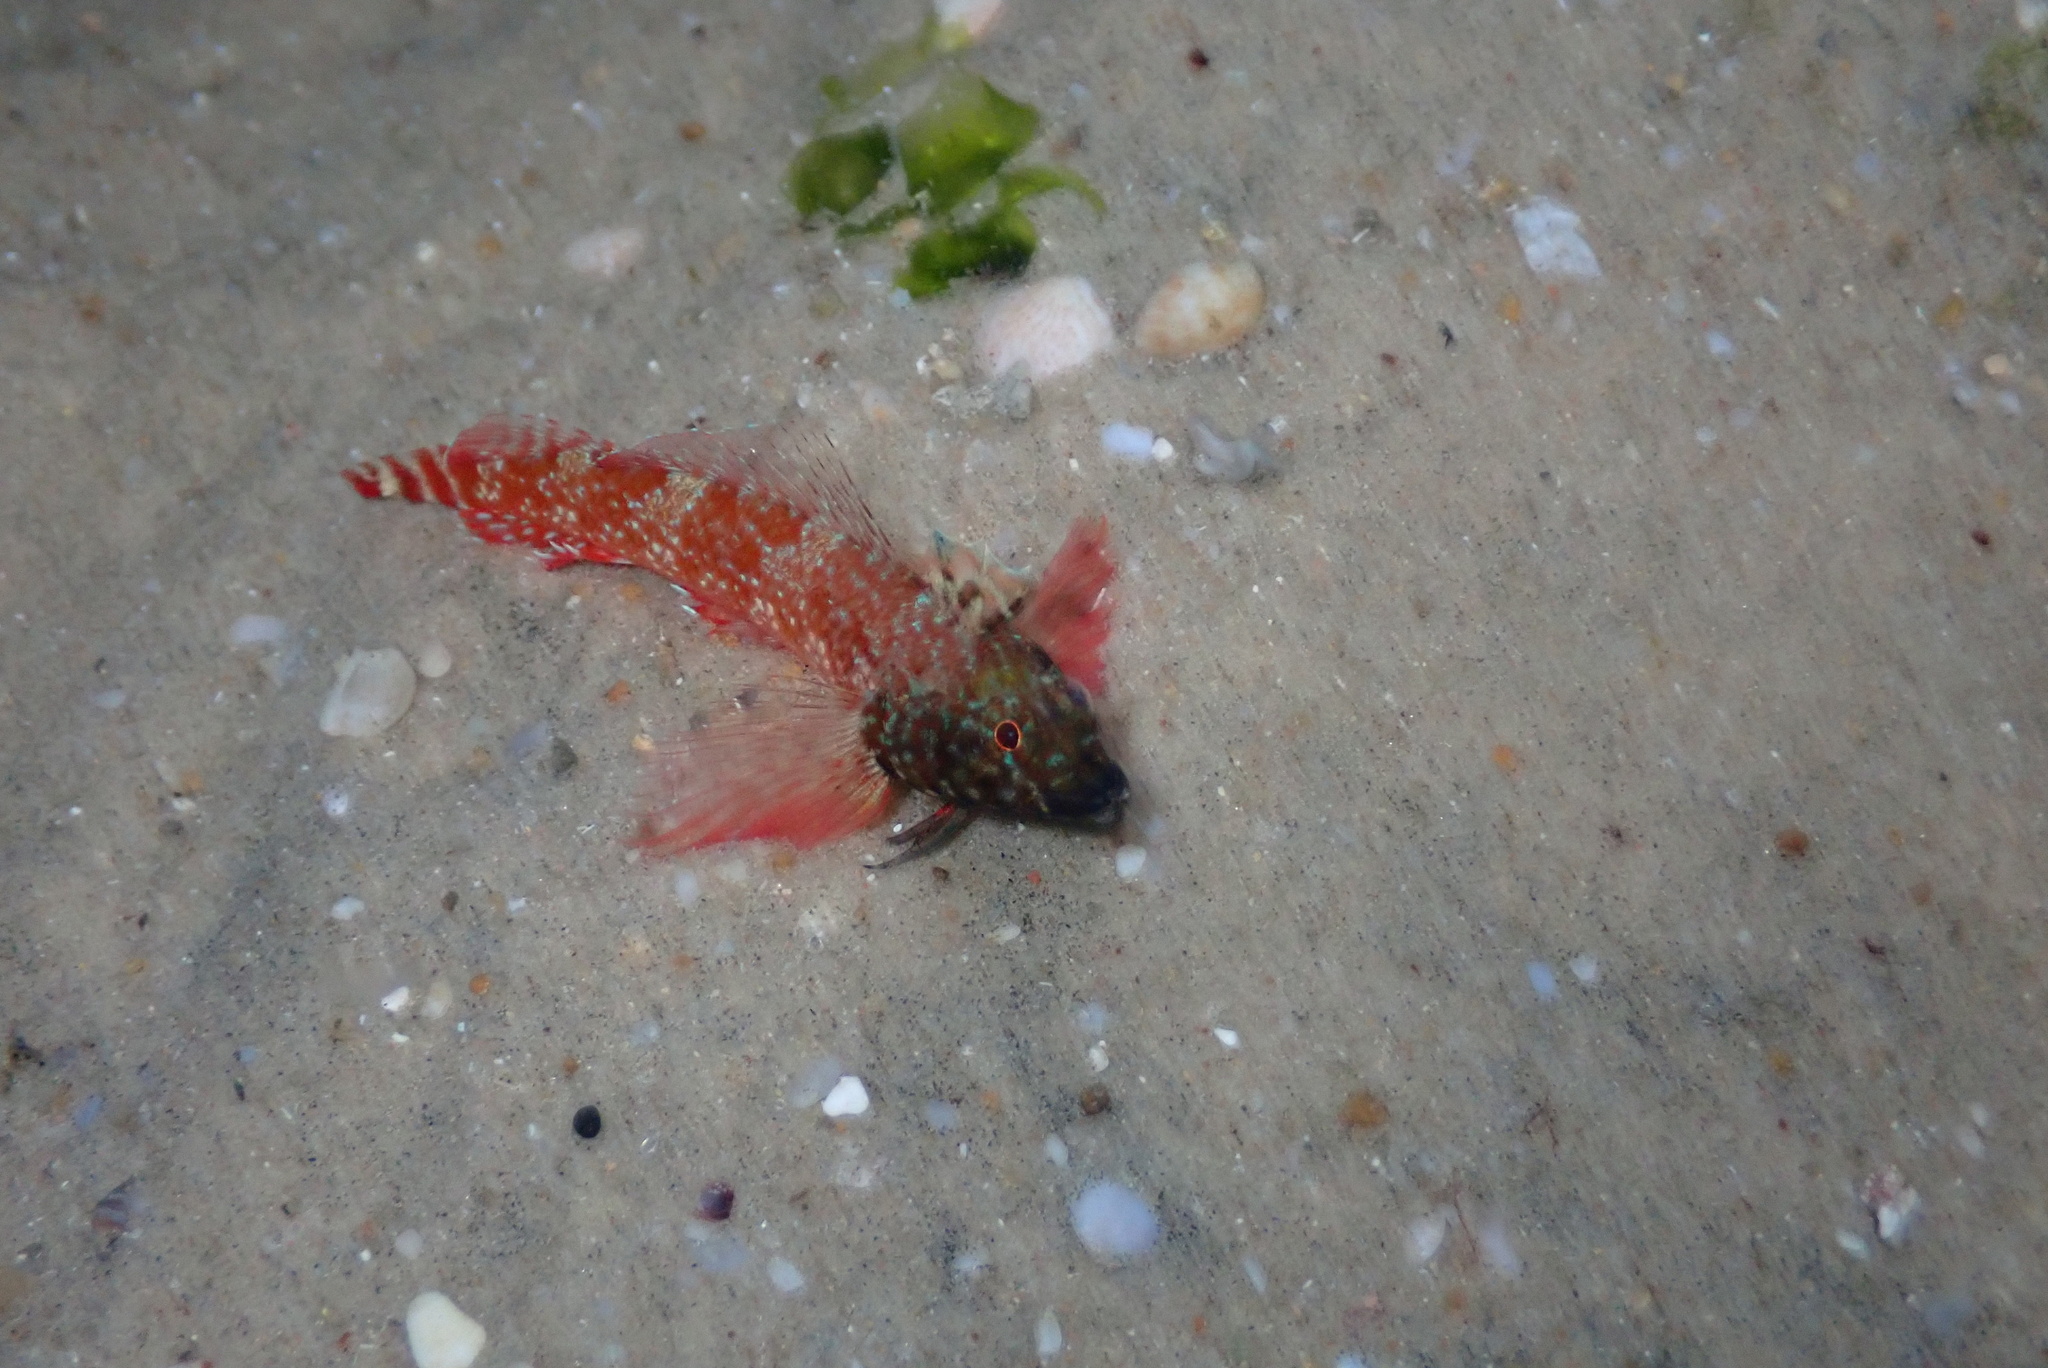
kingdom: Animalia
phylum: Chordata
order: Perciformes
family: Tripterygiidae
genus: Tripterygion
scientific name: Tripterygion tripteronotum
